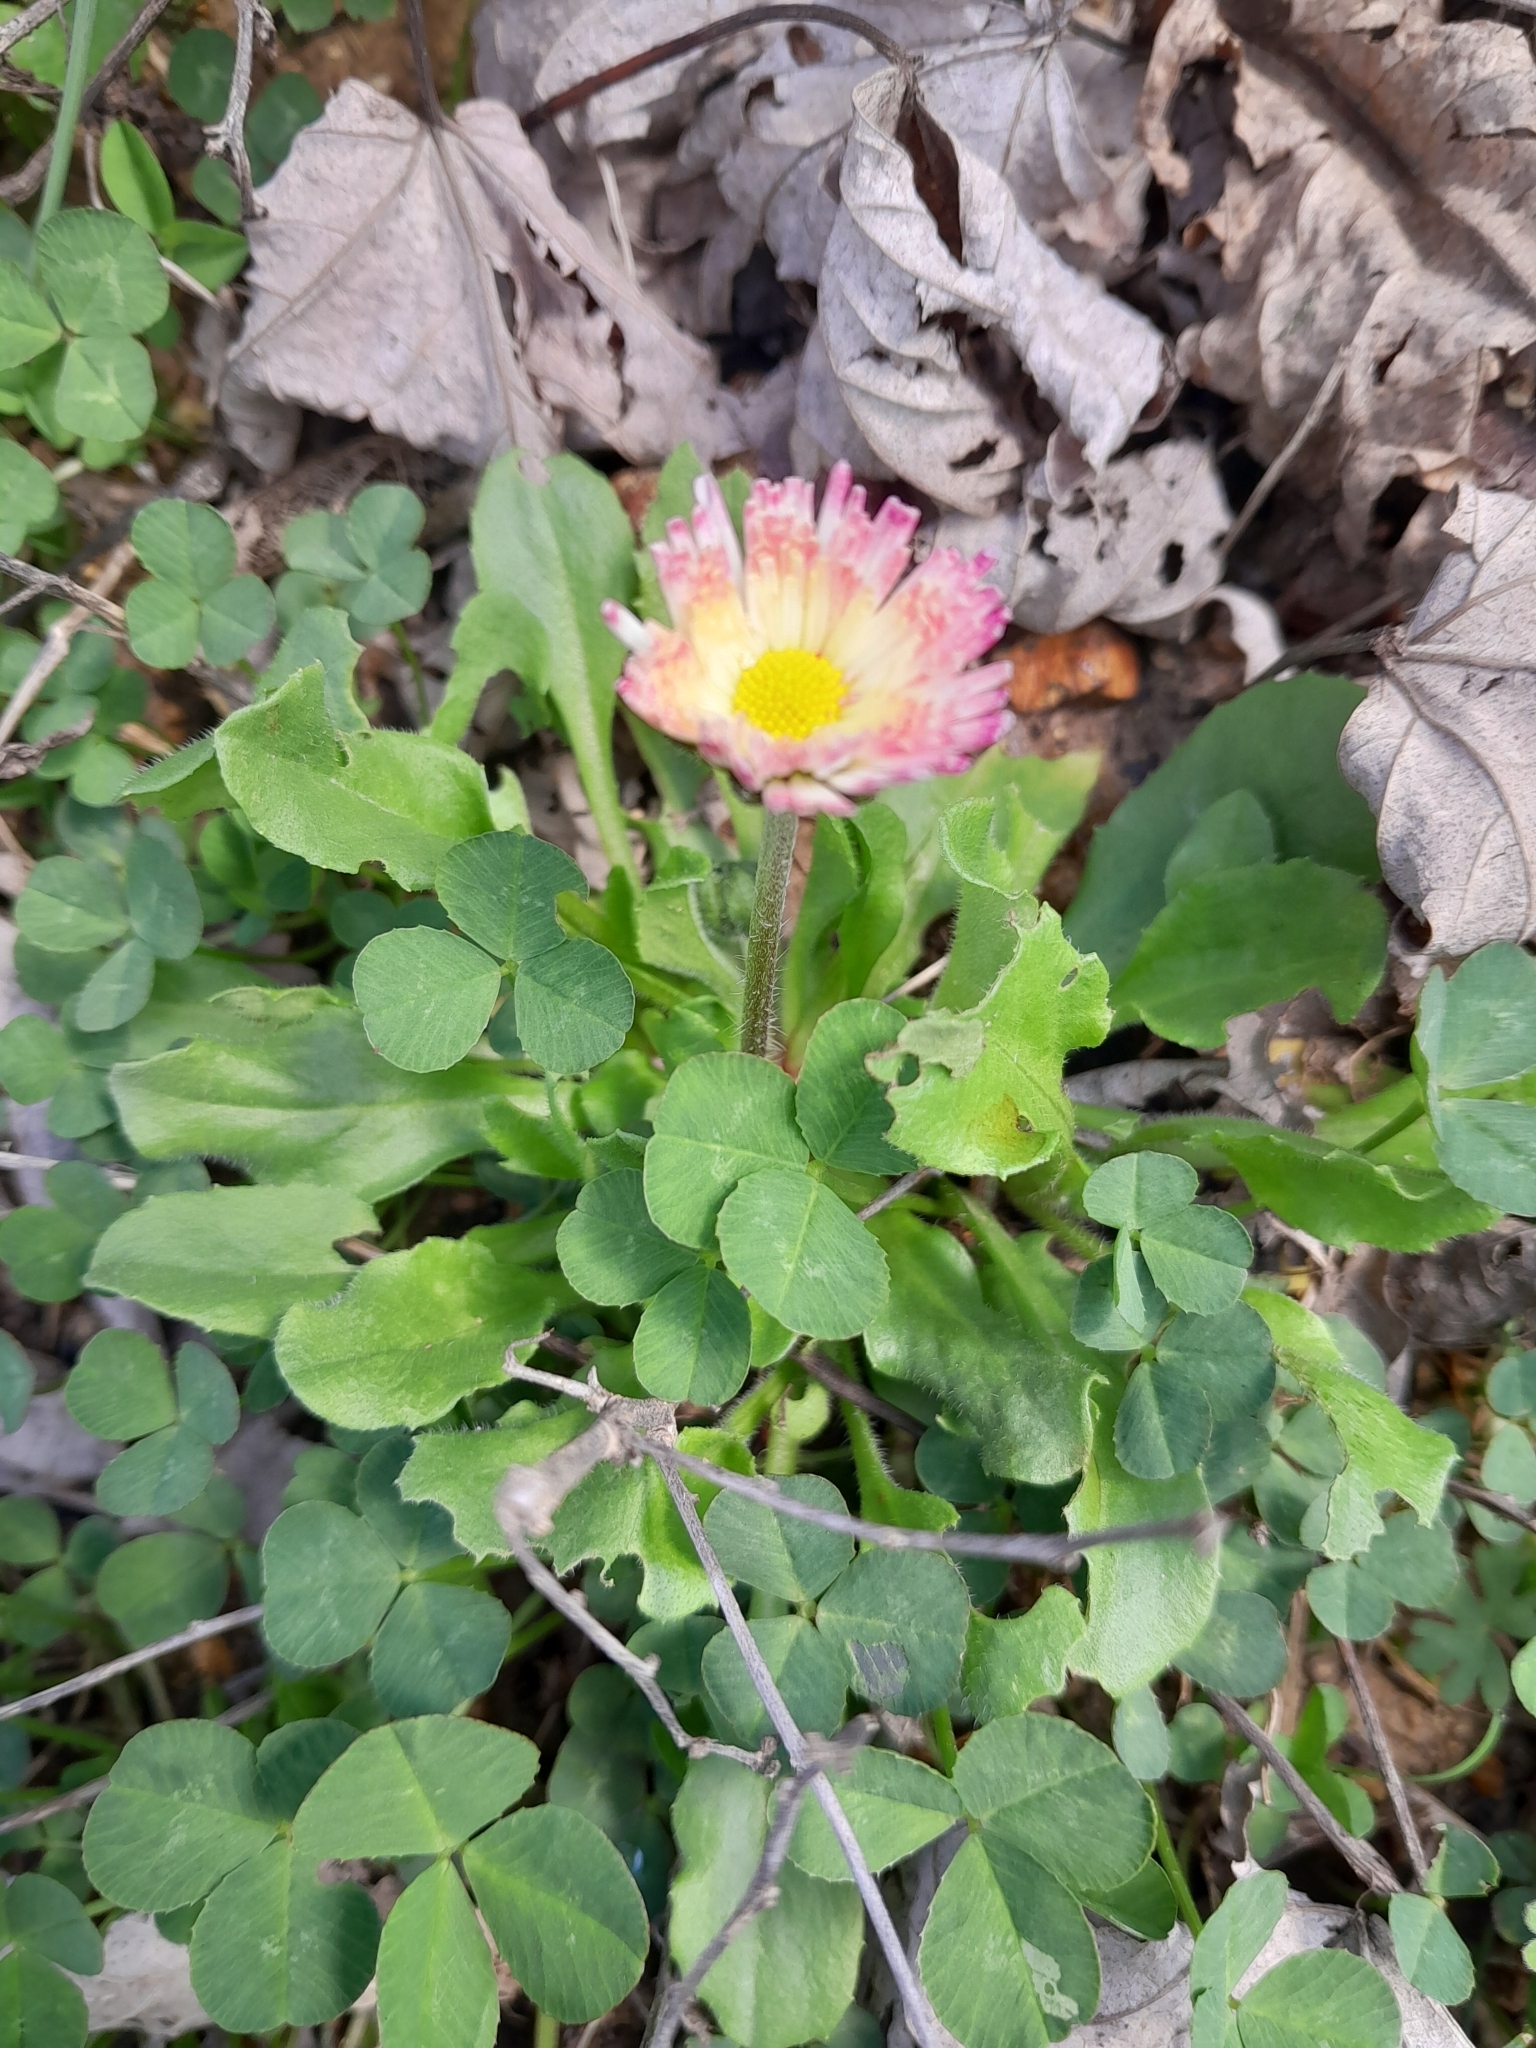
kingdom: Plantae
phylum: Tracheophyta
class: Magnoliopsida
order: Asterales
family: Asteraceae
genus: Erigeron
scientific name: Erigeron philadelphicus
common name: Robin's-plantain
